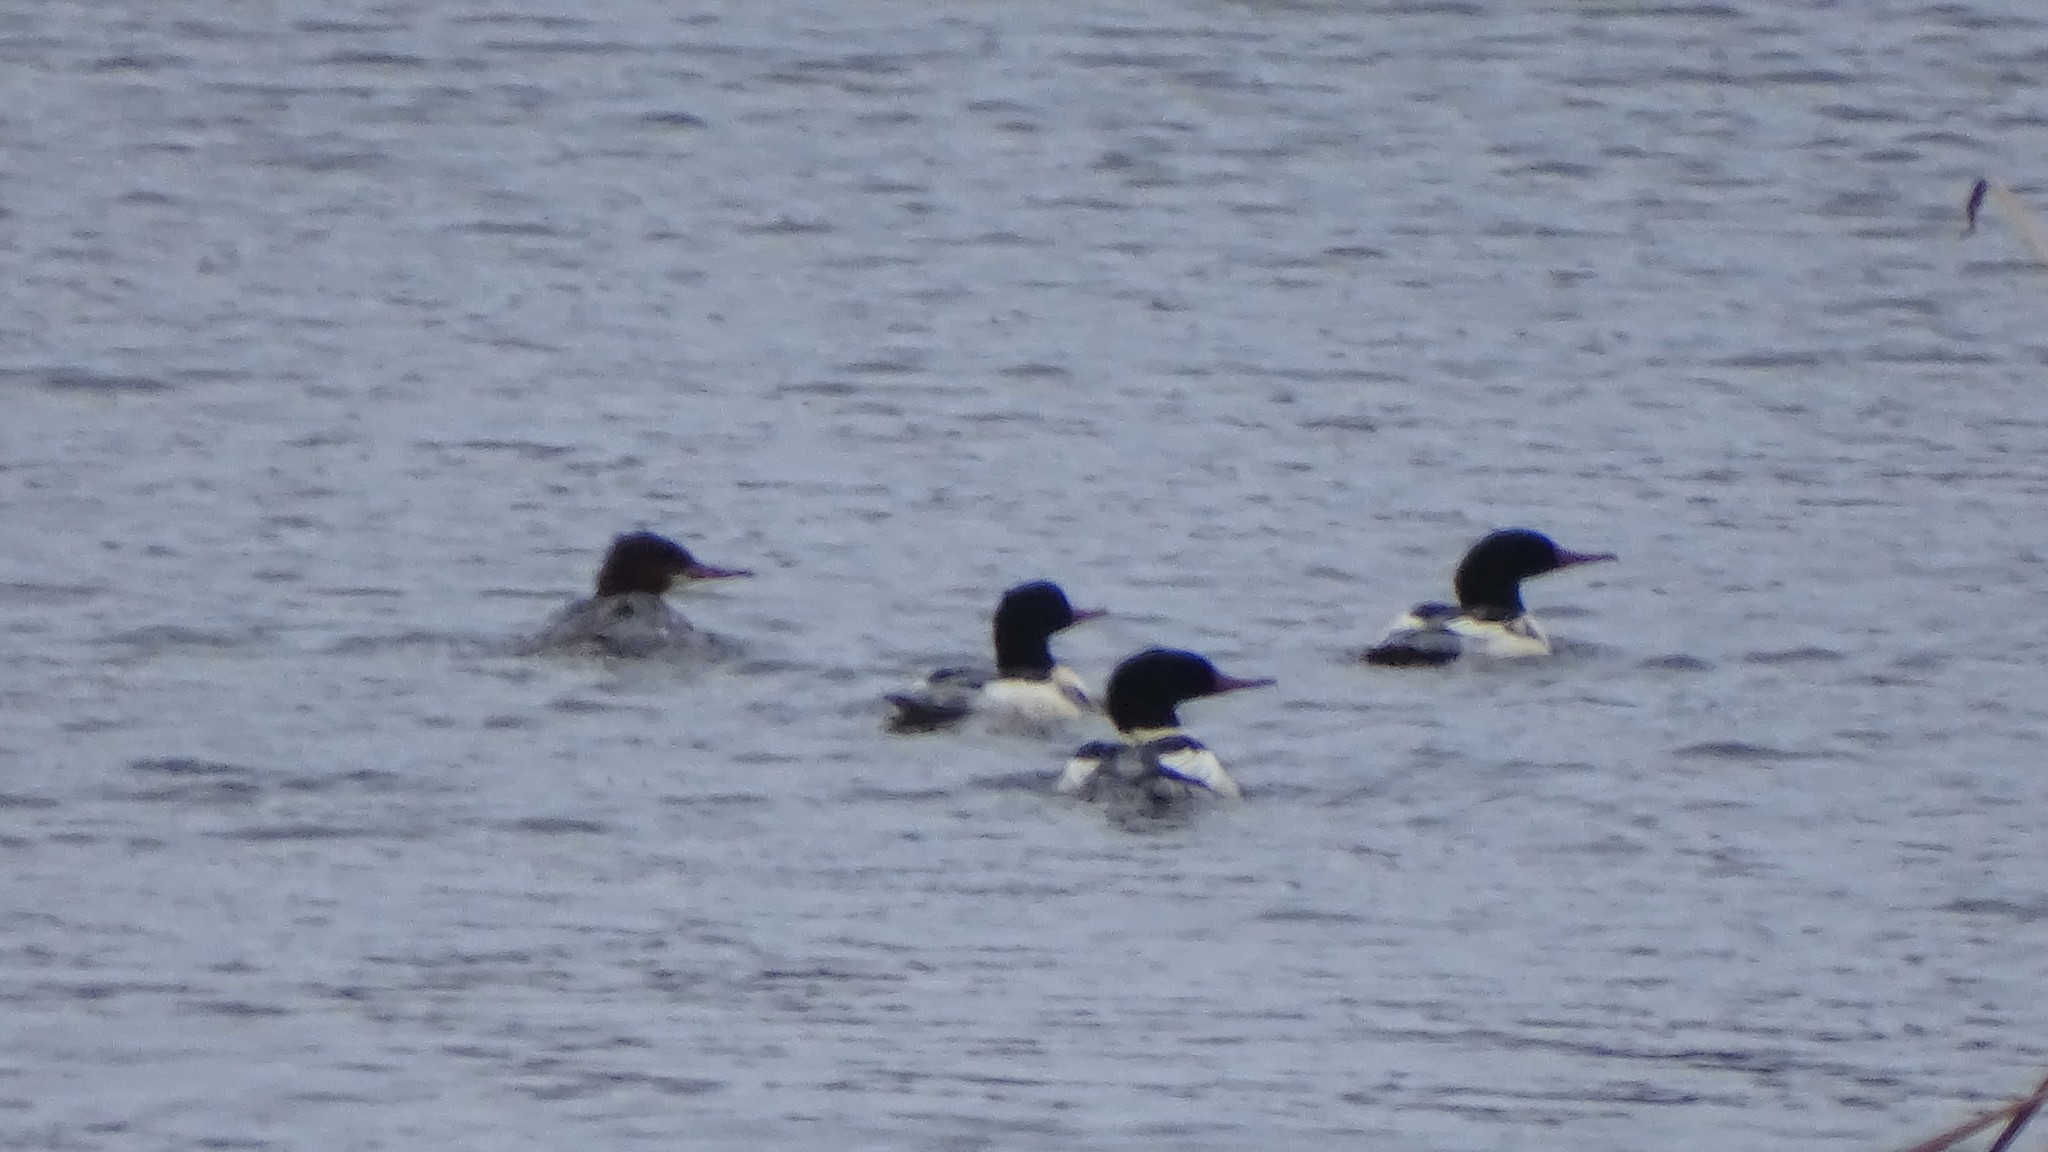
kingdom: Animalia
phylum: Chordata
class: Aves
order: Anseriformes
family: Anatidae
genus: Mergus
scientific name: Mergus merganser
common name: Common merganser
